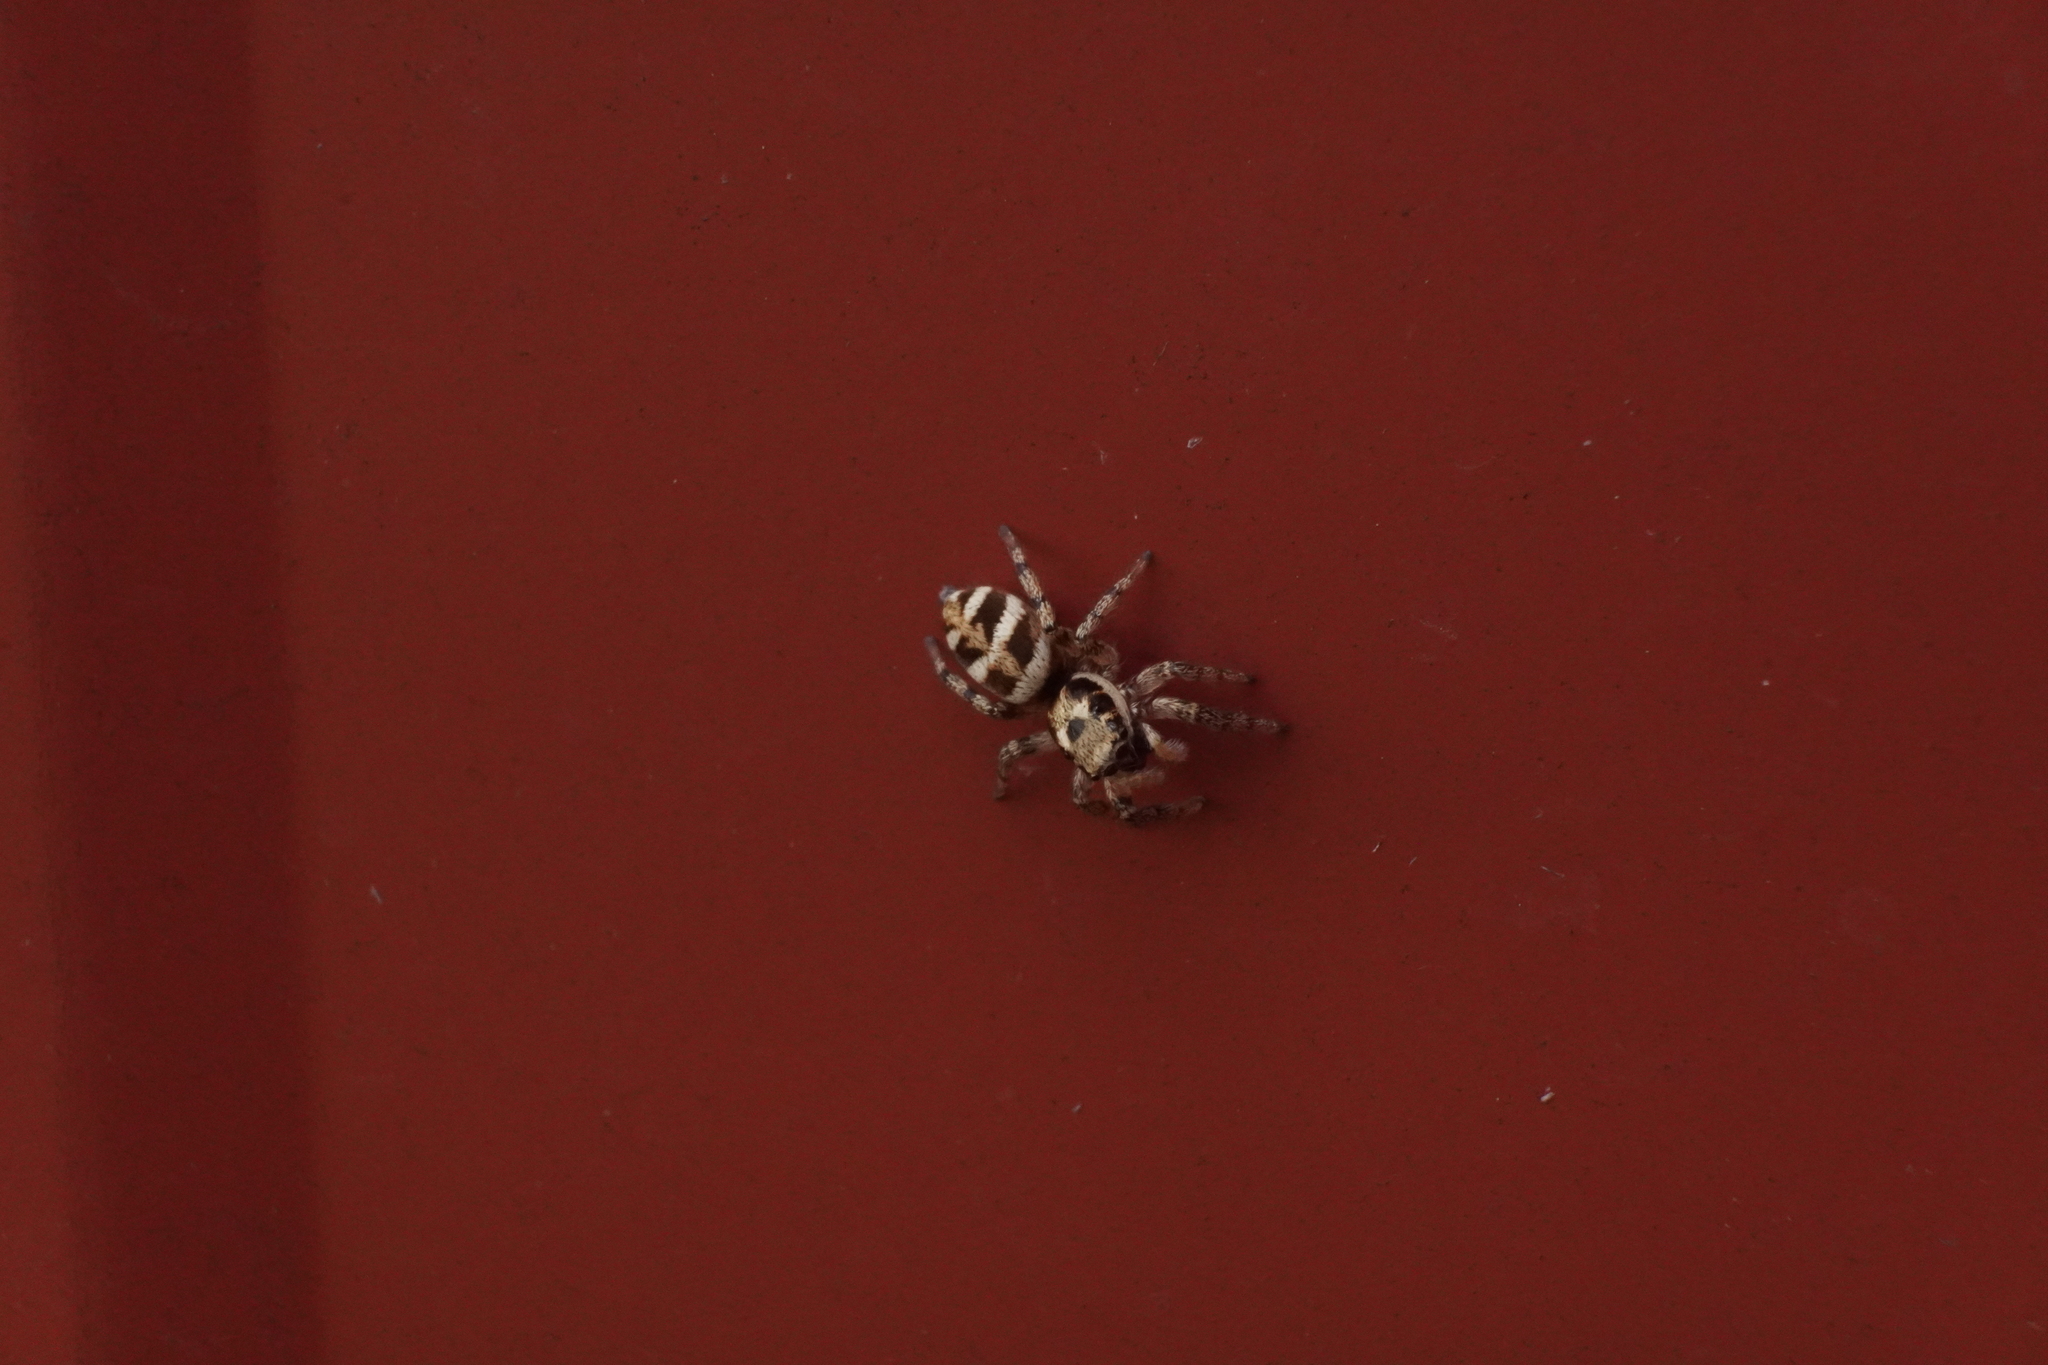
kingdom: Animalia
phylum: Arthropoda
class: Arachnida
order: Araneae
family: Salticidae
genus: Salticus
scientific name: Salticus scenicus
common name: Zebra jumper
